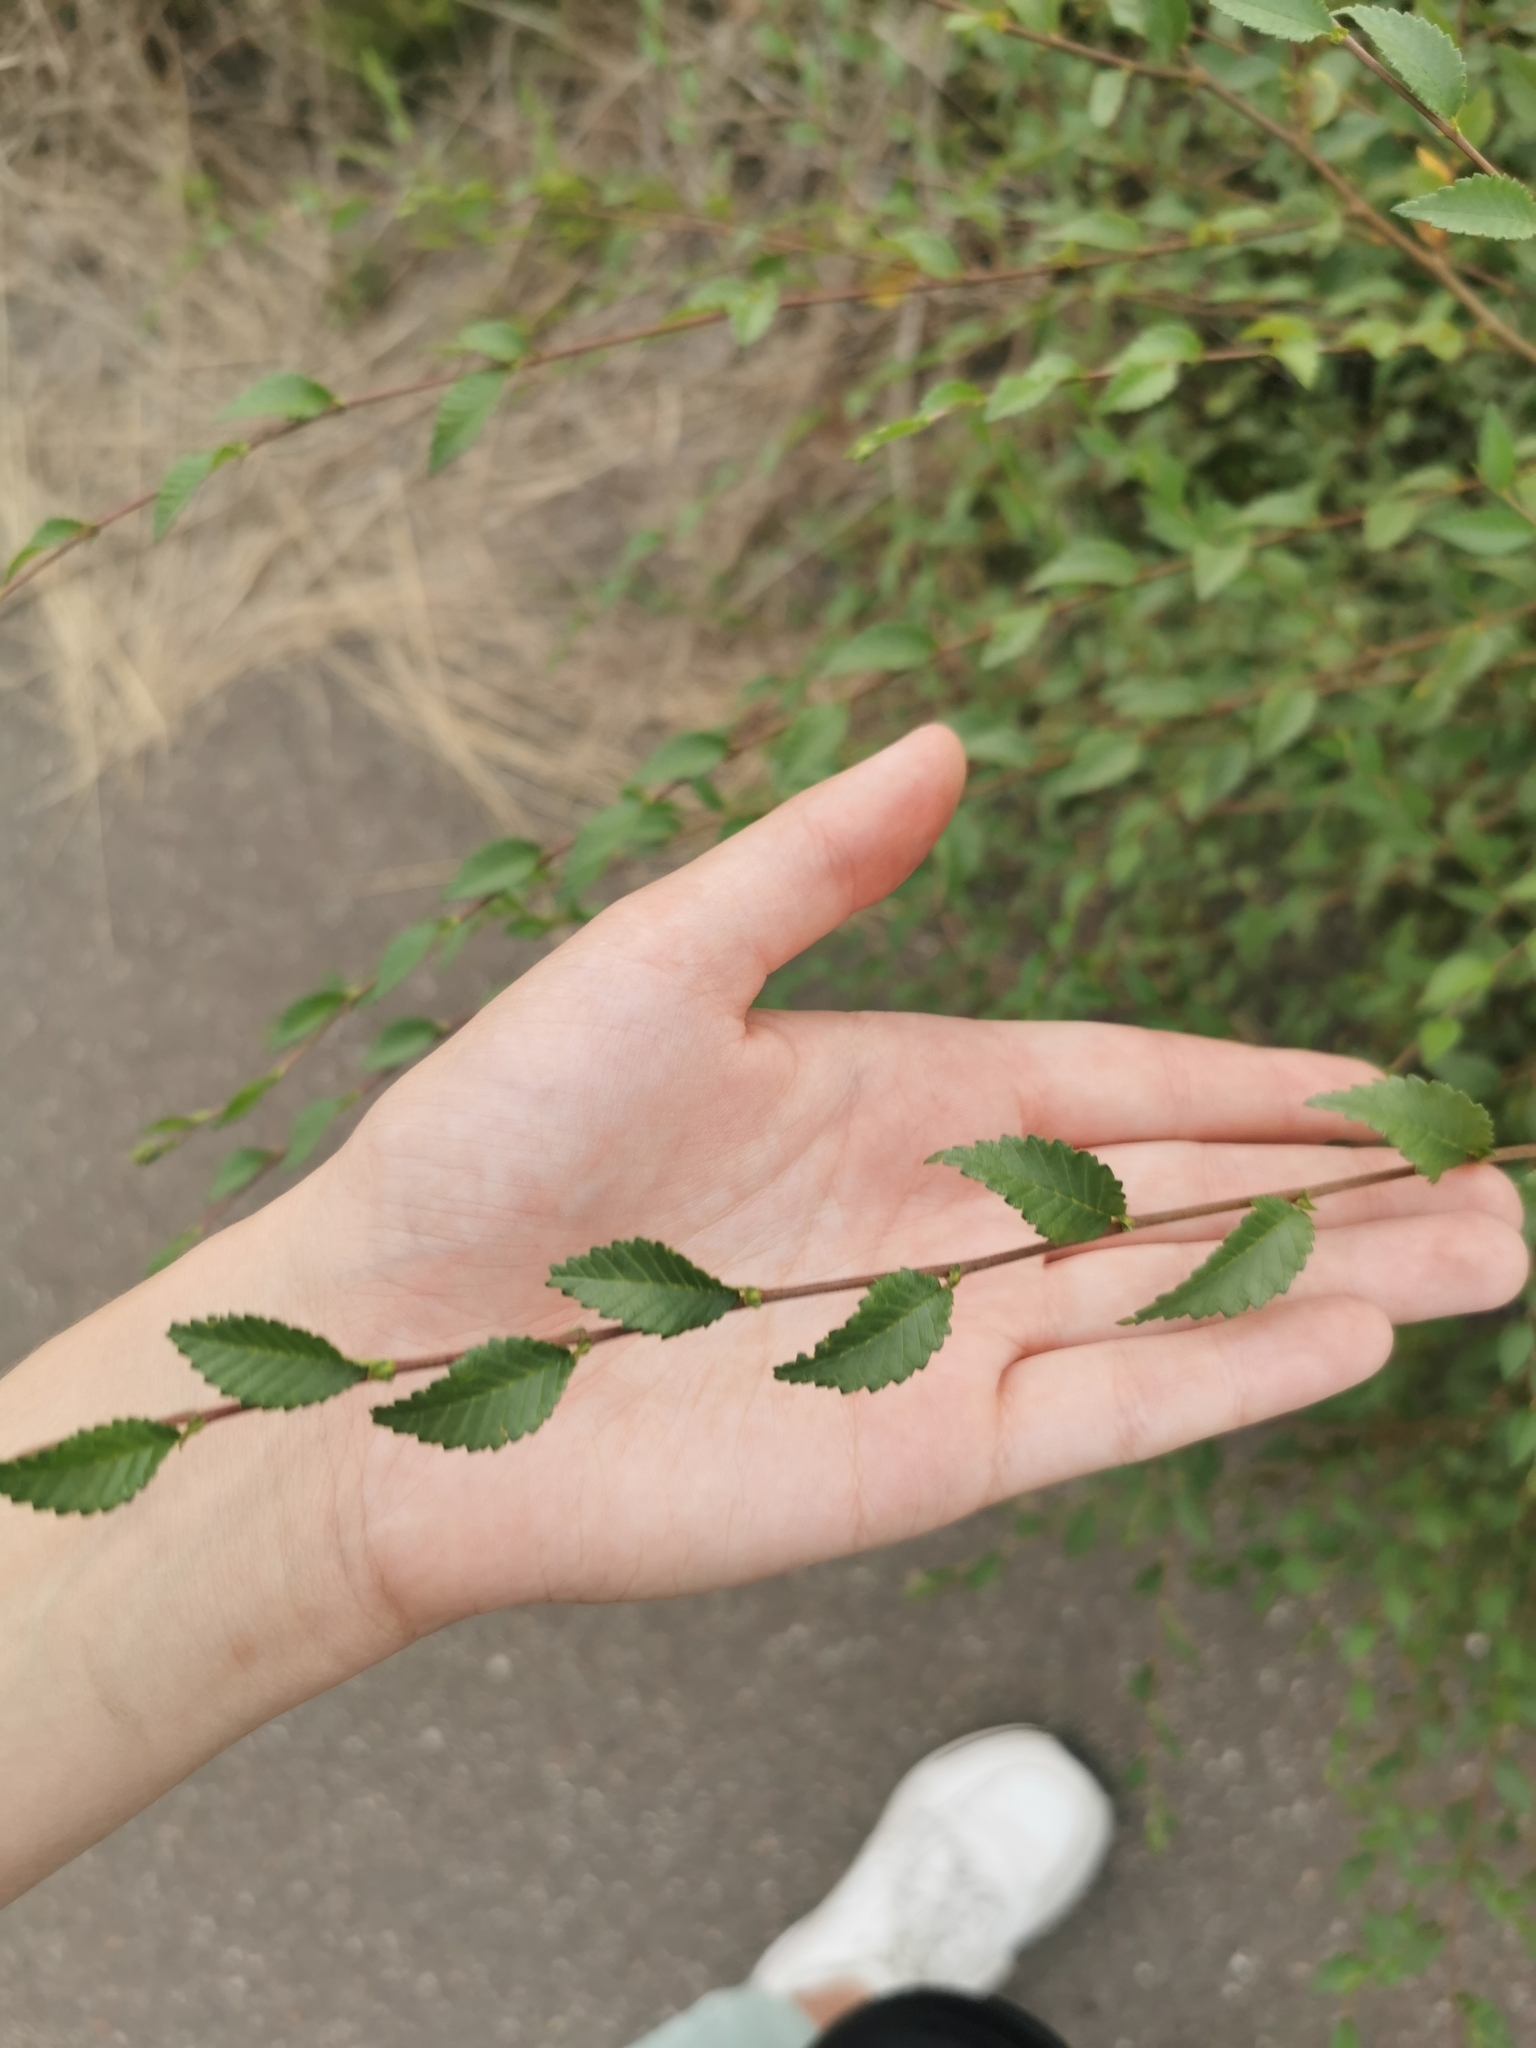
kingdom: Plantae
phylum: Tracheophyta
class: Magnoliopsida
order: Rosales
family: Ulmaceae
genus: Ulmus
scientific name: Ulmus pumila
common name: Siberian elm
